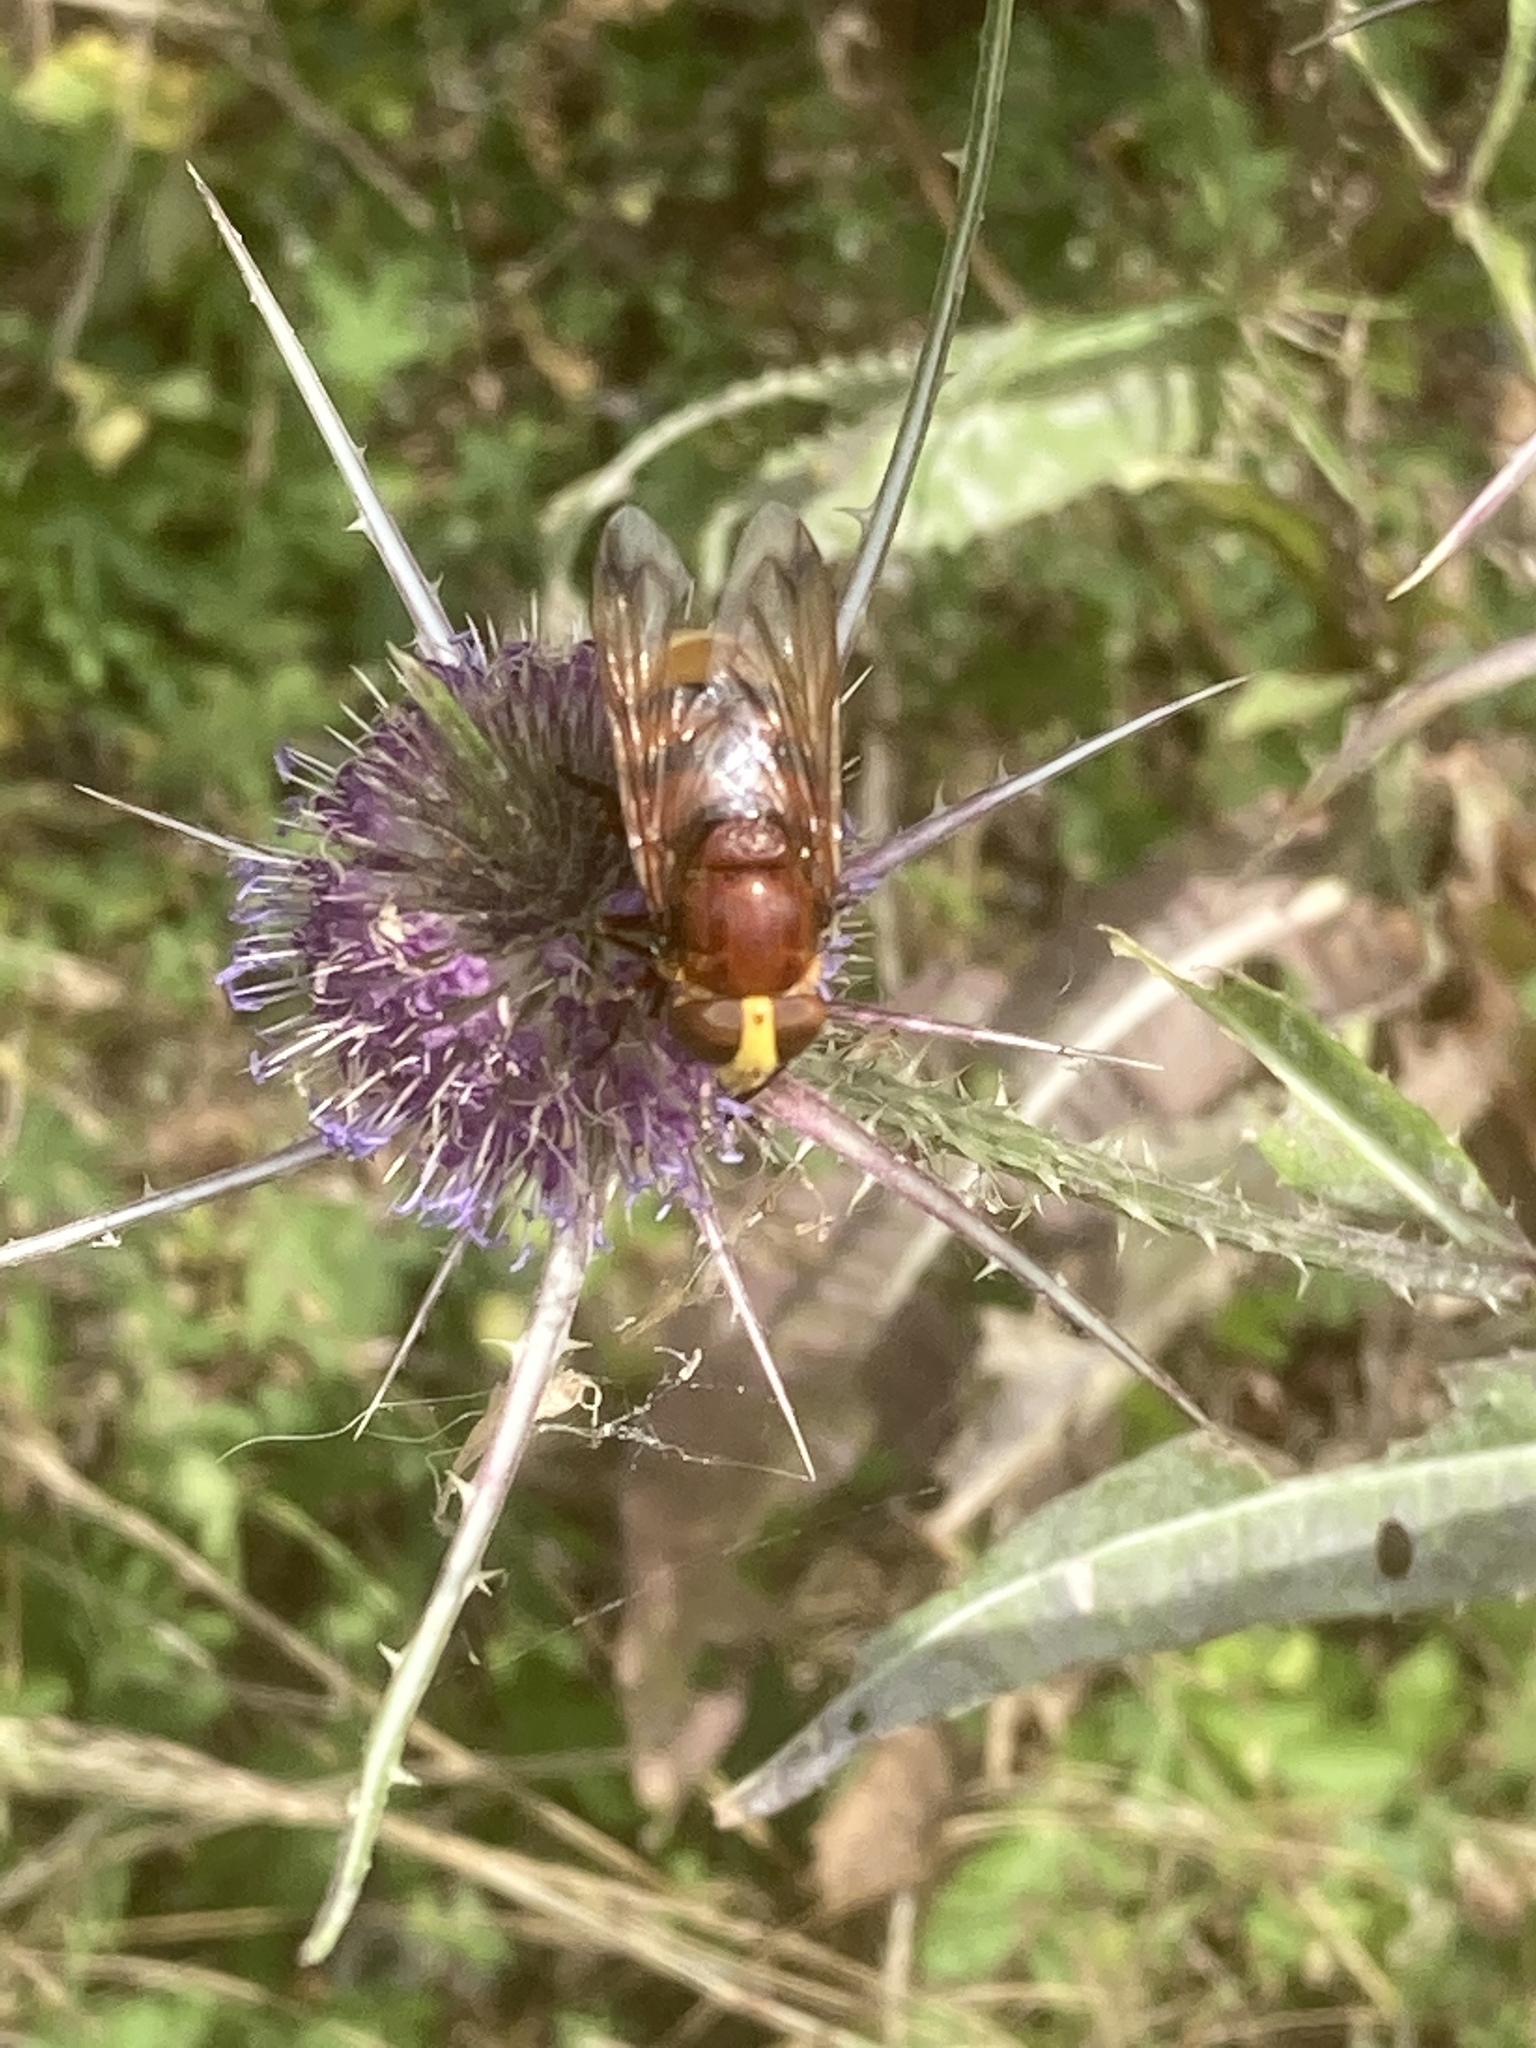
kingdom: Animalia
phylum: Arthropoda
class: Insecta
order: Diptera
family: Syrphidae
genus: Volucella
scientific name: Volucella zonaria
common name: Hornet hoverfly
